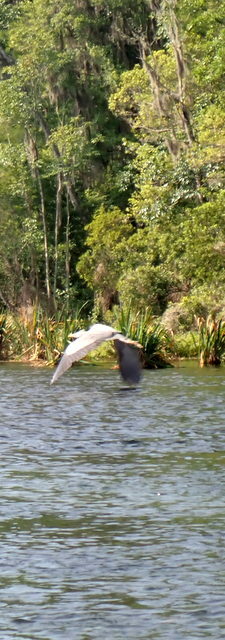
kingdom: Animalia
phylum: Chordata
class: Aves
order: Pelecaniformes
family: Ardeidae
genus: Ardea
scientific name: Ardea herodias
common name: Great blue heron
